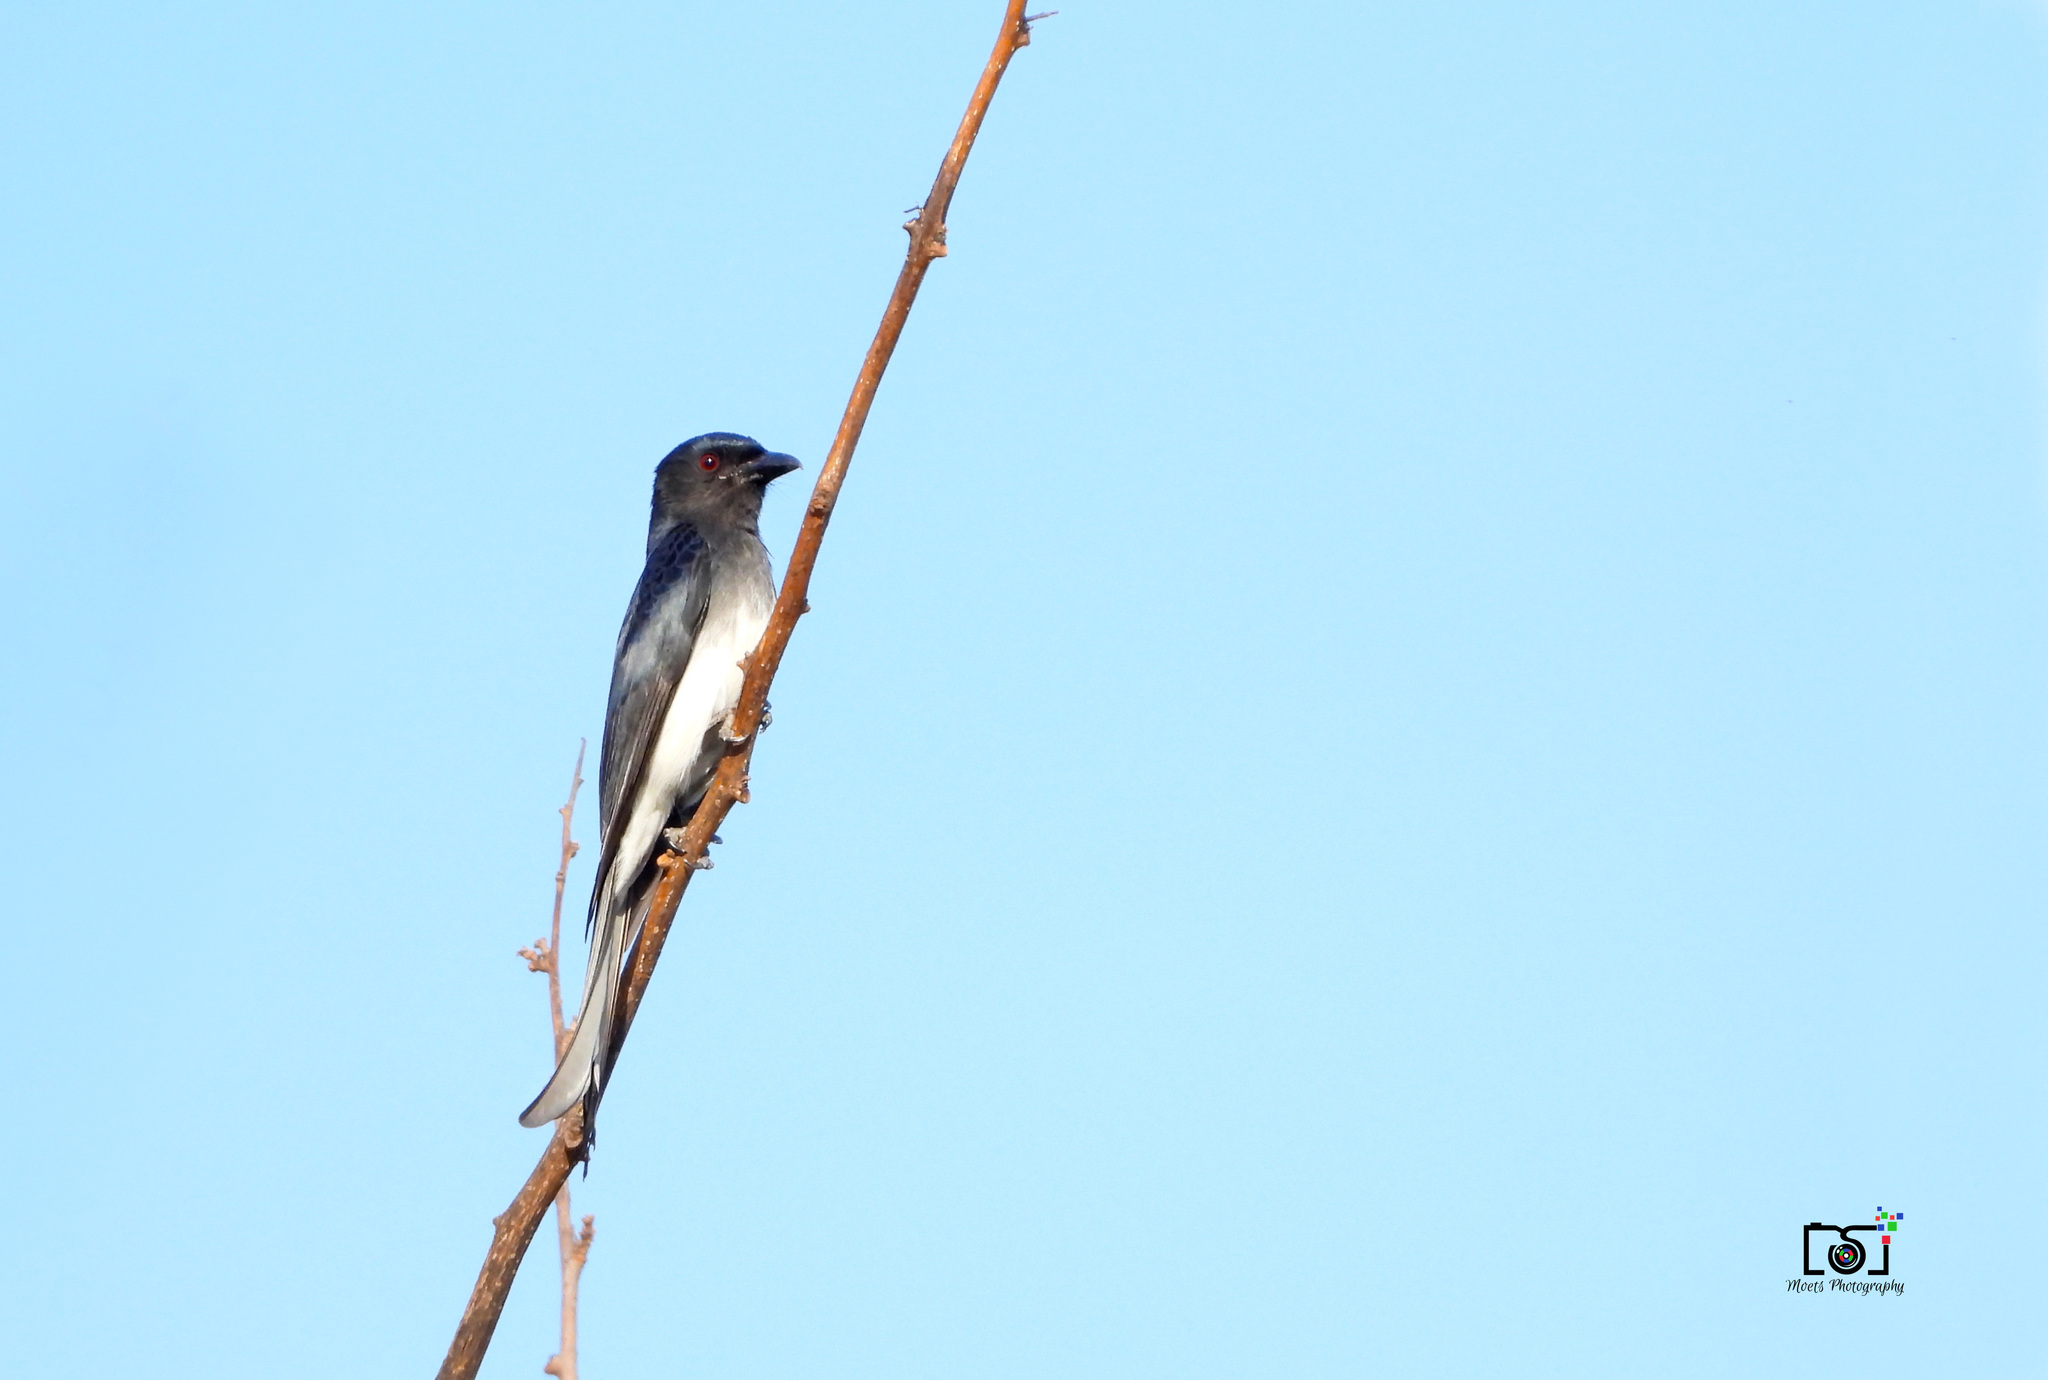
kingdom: Animalia
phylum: Chordata
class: Aves
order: Passeriformes
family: Dicruridae
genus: Dicrurus
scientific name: Dicrurus caerulescens
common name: White-bellied drongo
